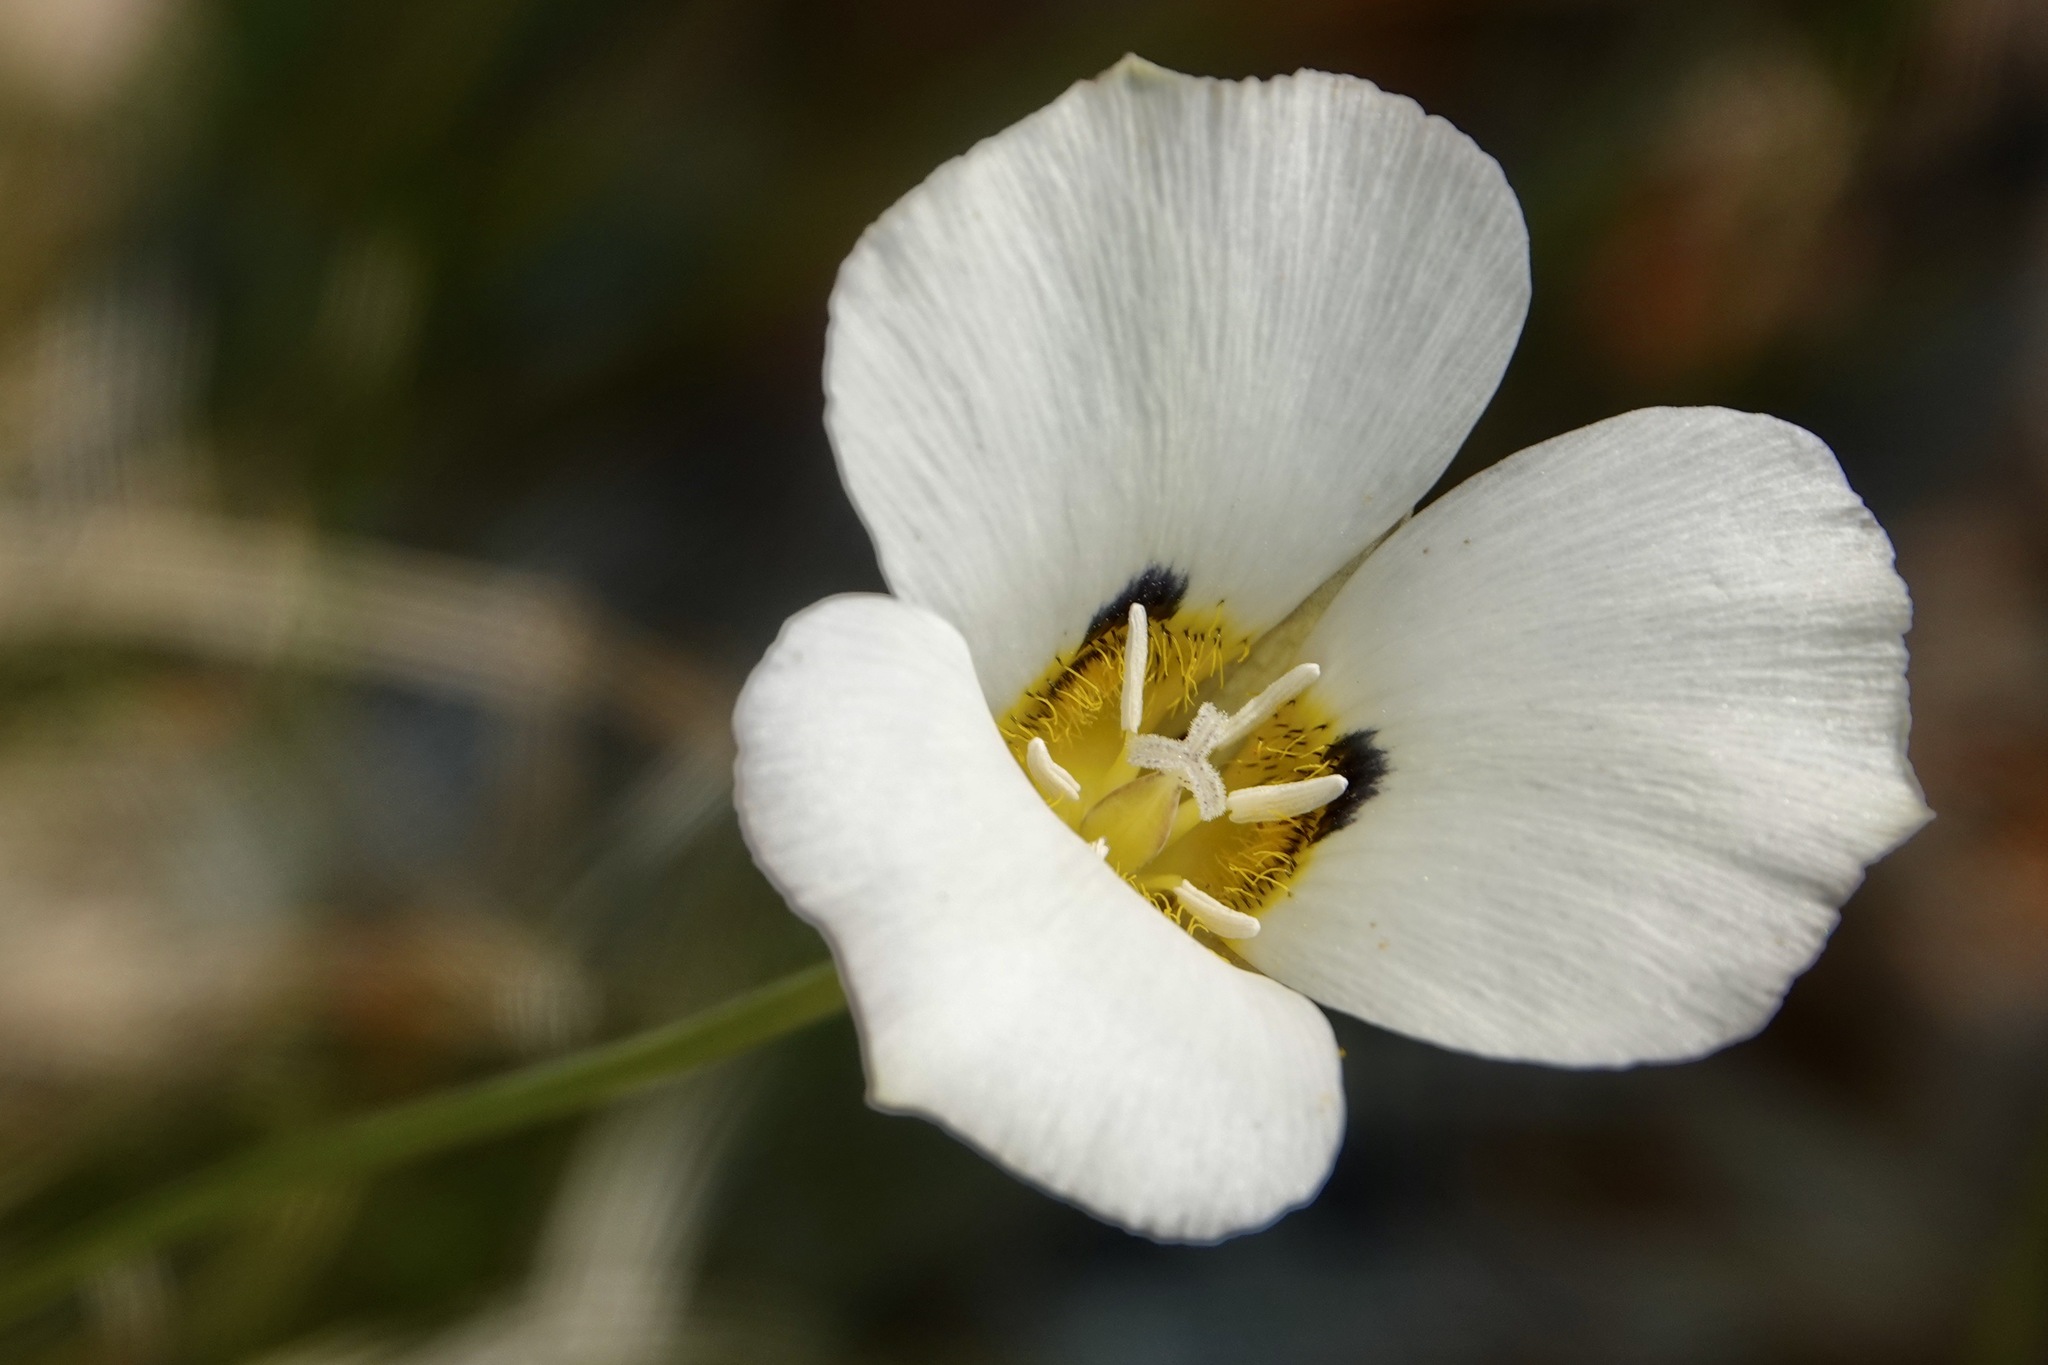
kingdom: Plantae
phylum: Tracheophyta
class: Liliopsida
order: Liliales
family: Liliaceae
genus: Calochortus
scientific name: Calochortus leichtlinii
